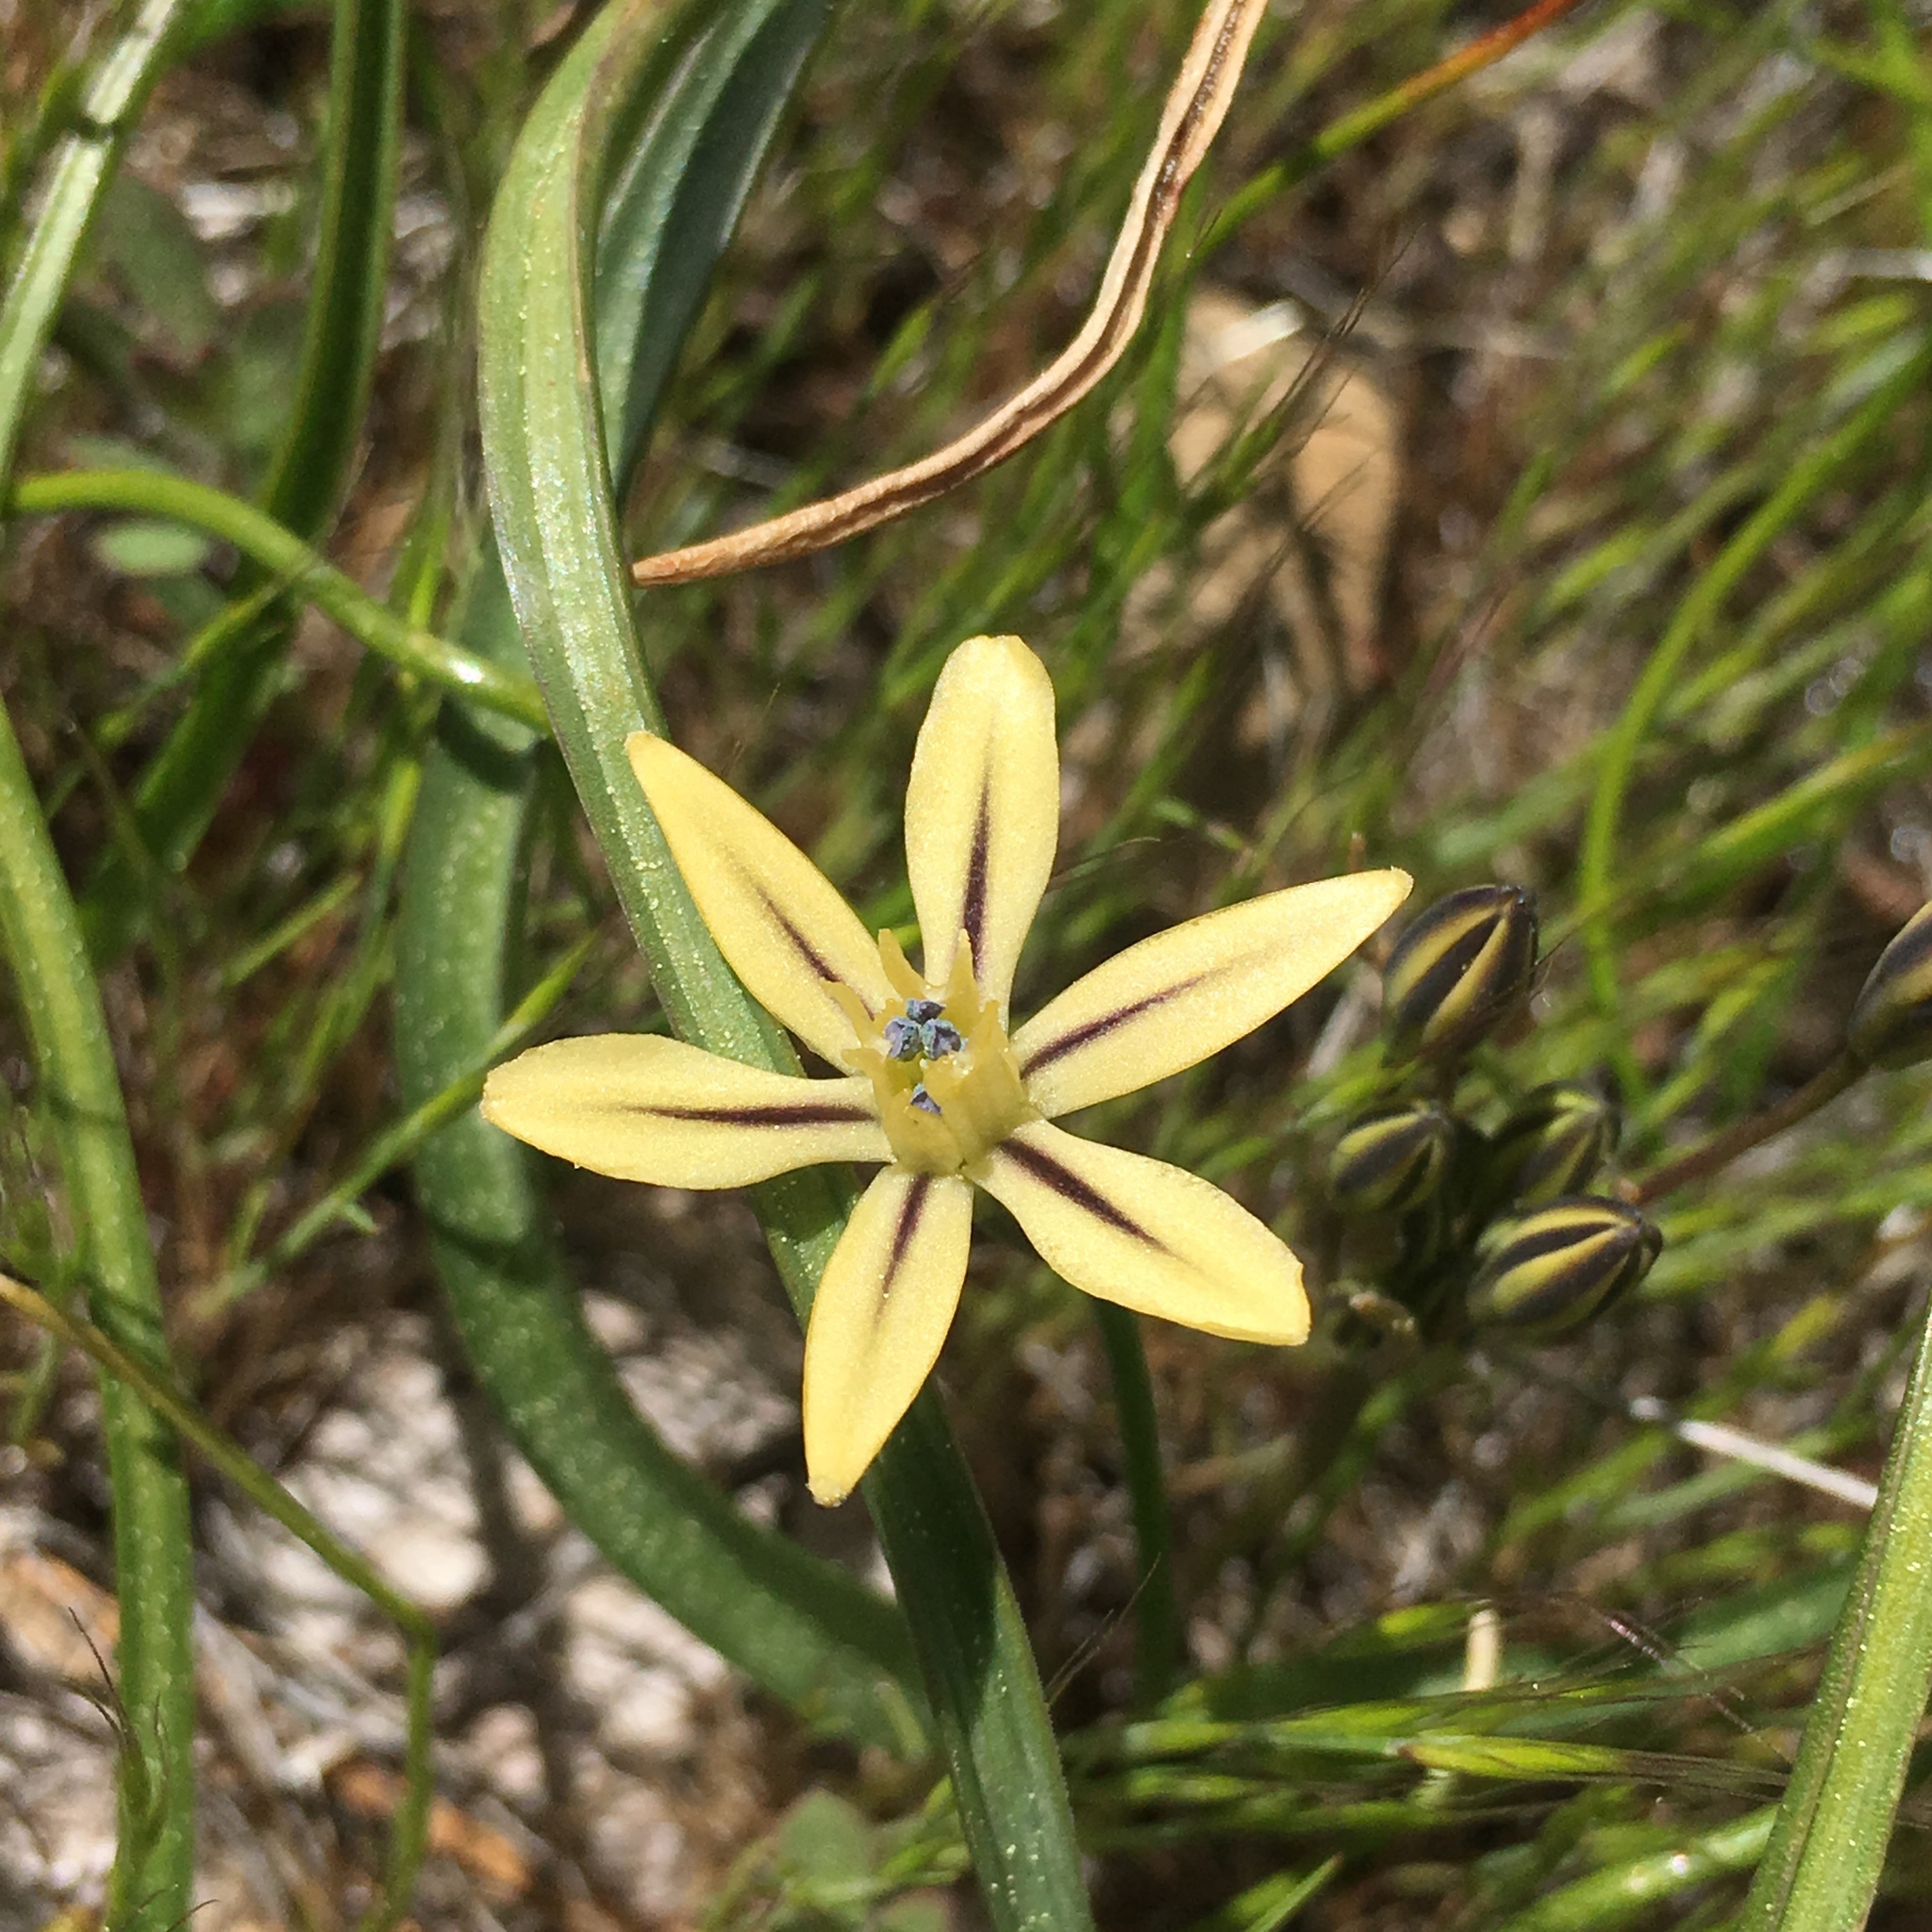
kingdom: Plantae
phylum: Tracheophyta
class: Liliopsida
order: Asparagales
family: Asparagaceae
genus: Triteleia
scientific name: Triteleia ixioides
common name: Yellow-brodiaea
